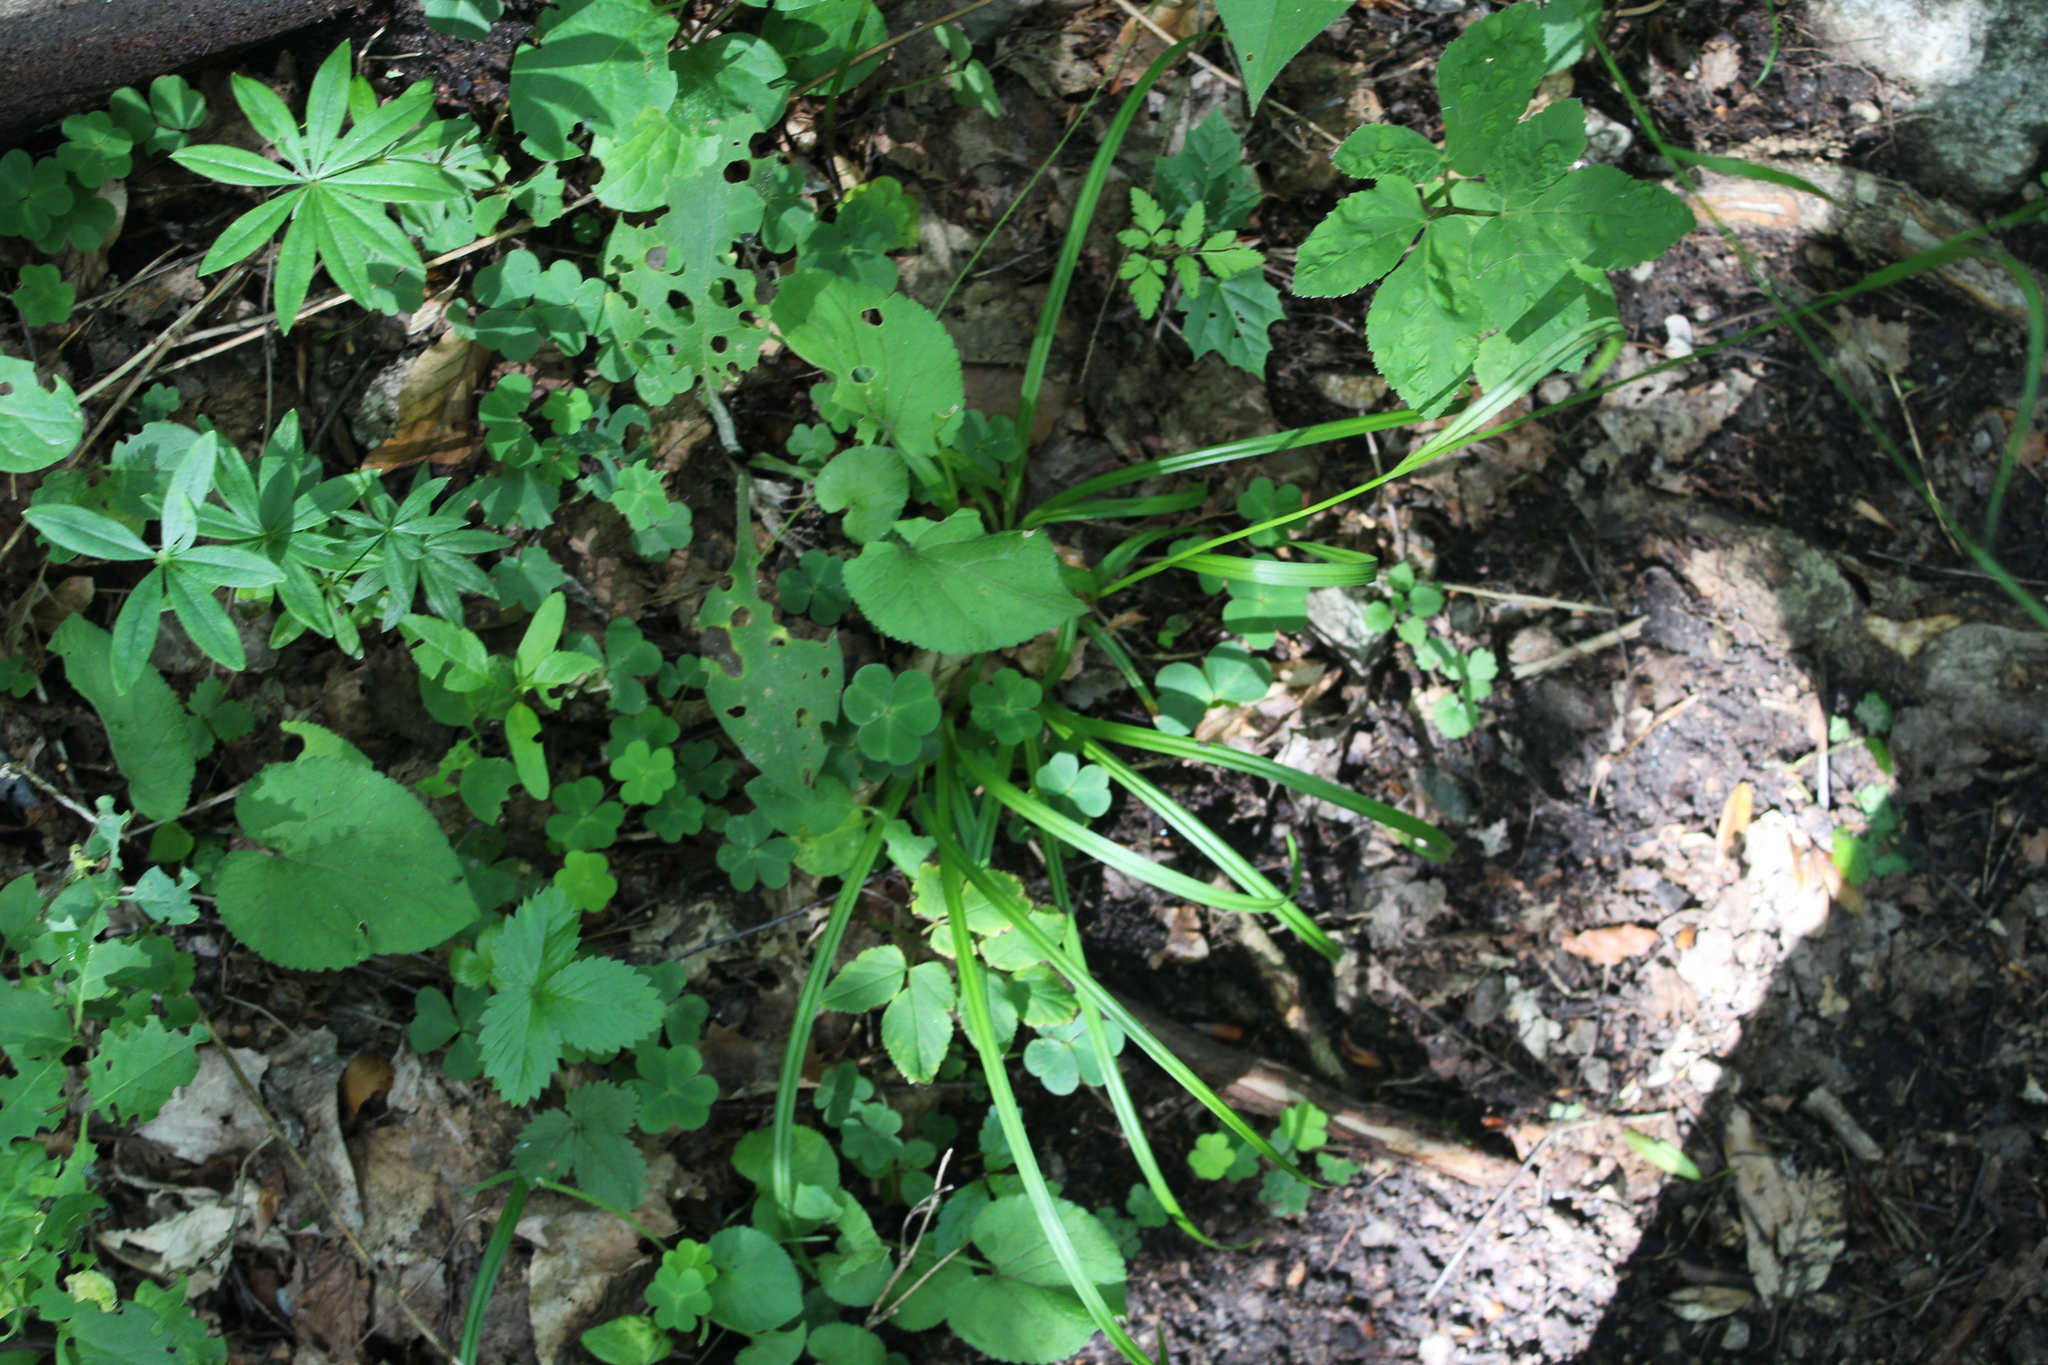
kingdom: Plantae
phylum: Tracheophyta
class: Liliopsida
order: Poales
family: Cyperaceae
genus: Carex
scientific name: Carex sylvatica
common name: Wood-sedge
